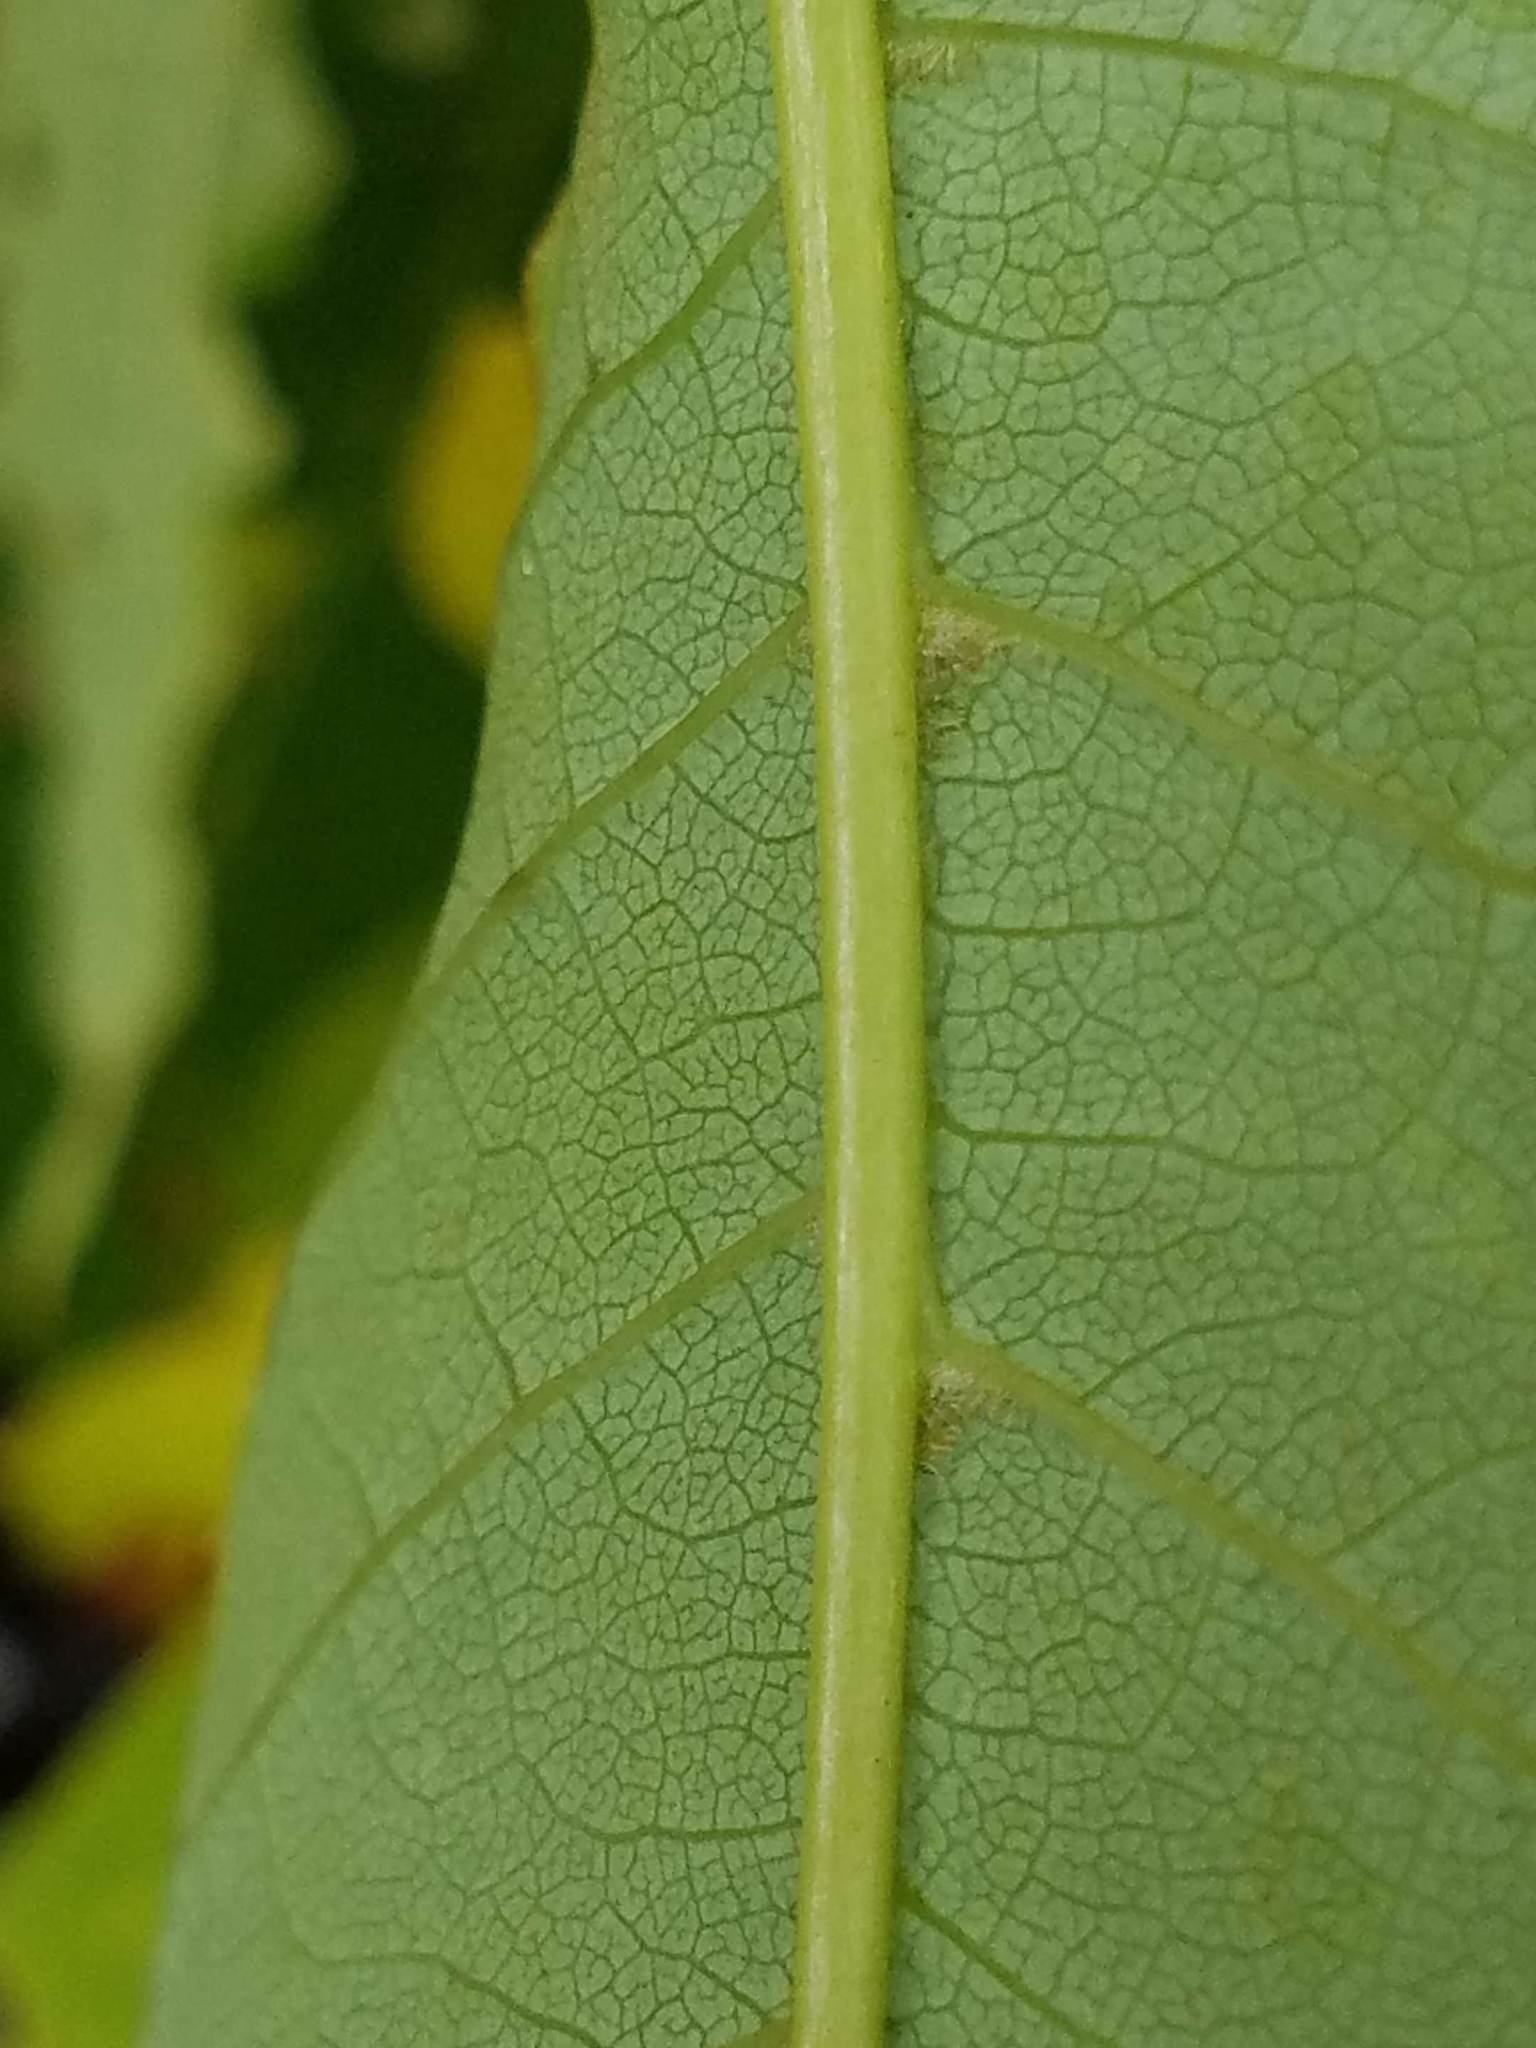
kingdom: Plantae
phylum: Tracheophyta
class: Magnoliopsida
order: Rosales
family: Rosaceae
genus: Prunus
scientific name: Prunus virginiana
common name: Chokecherry
